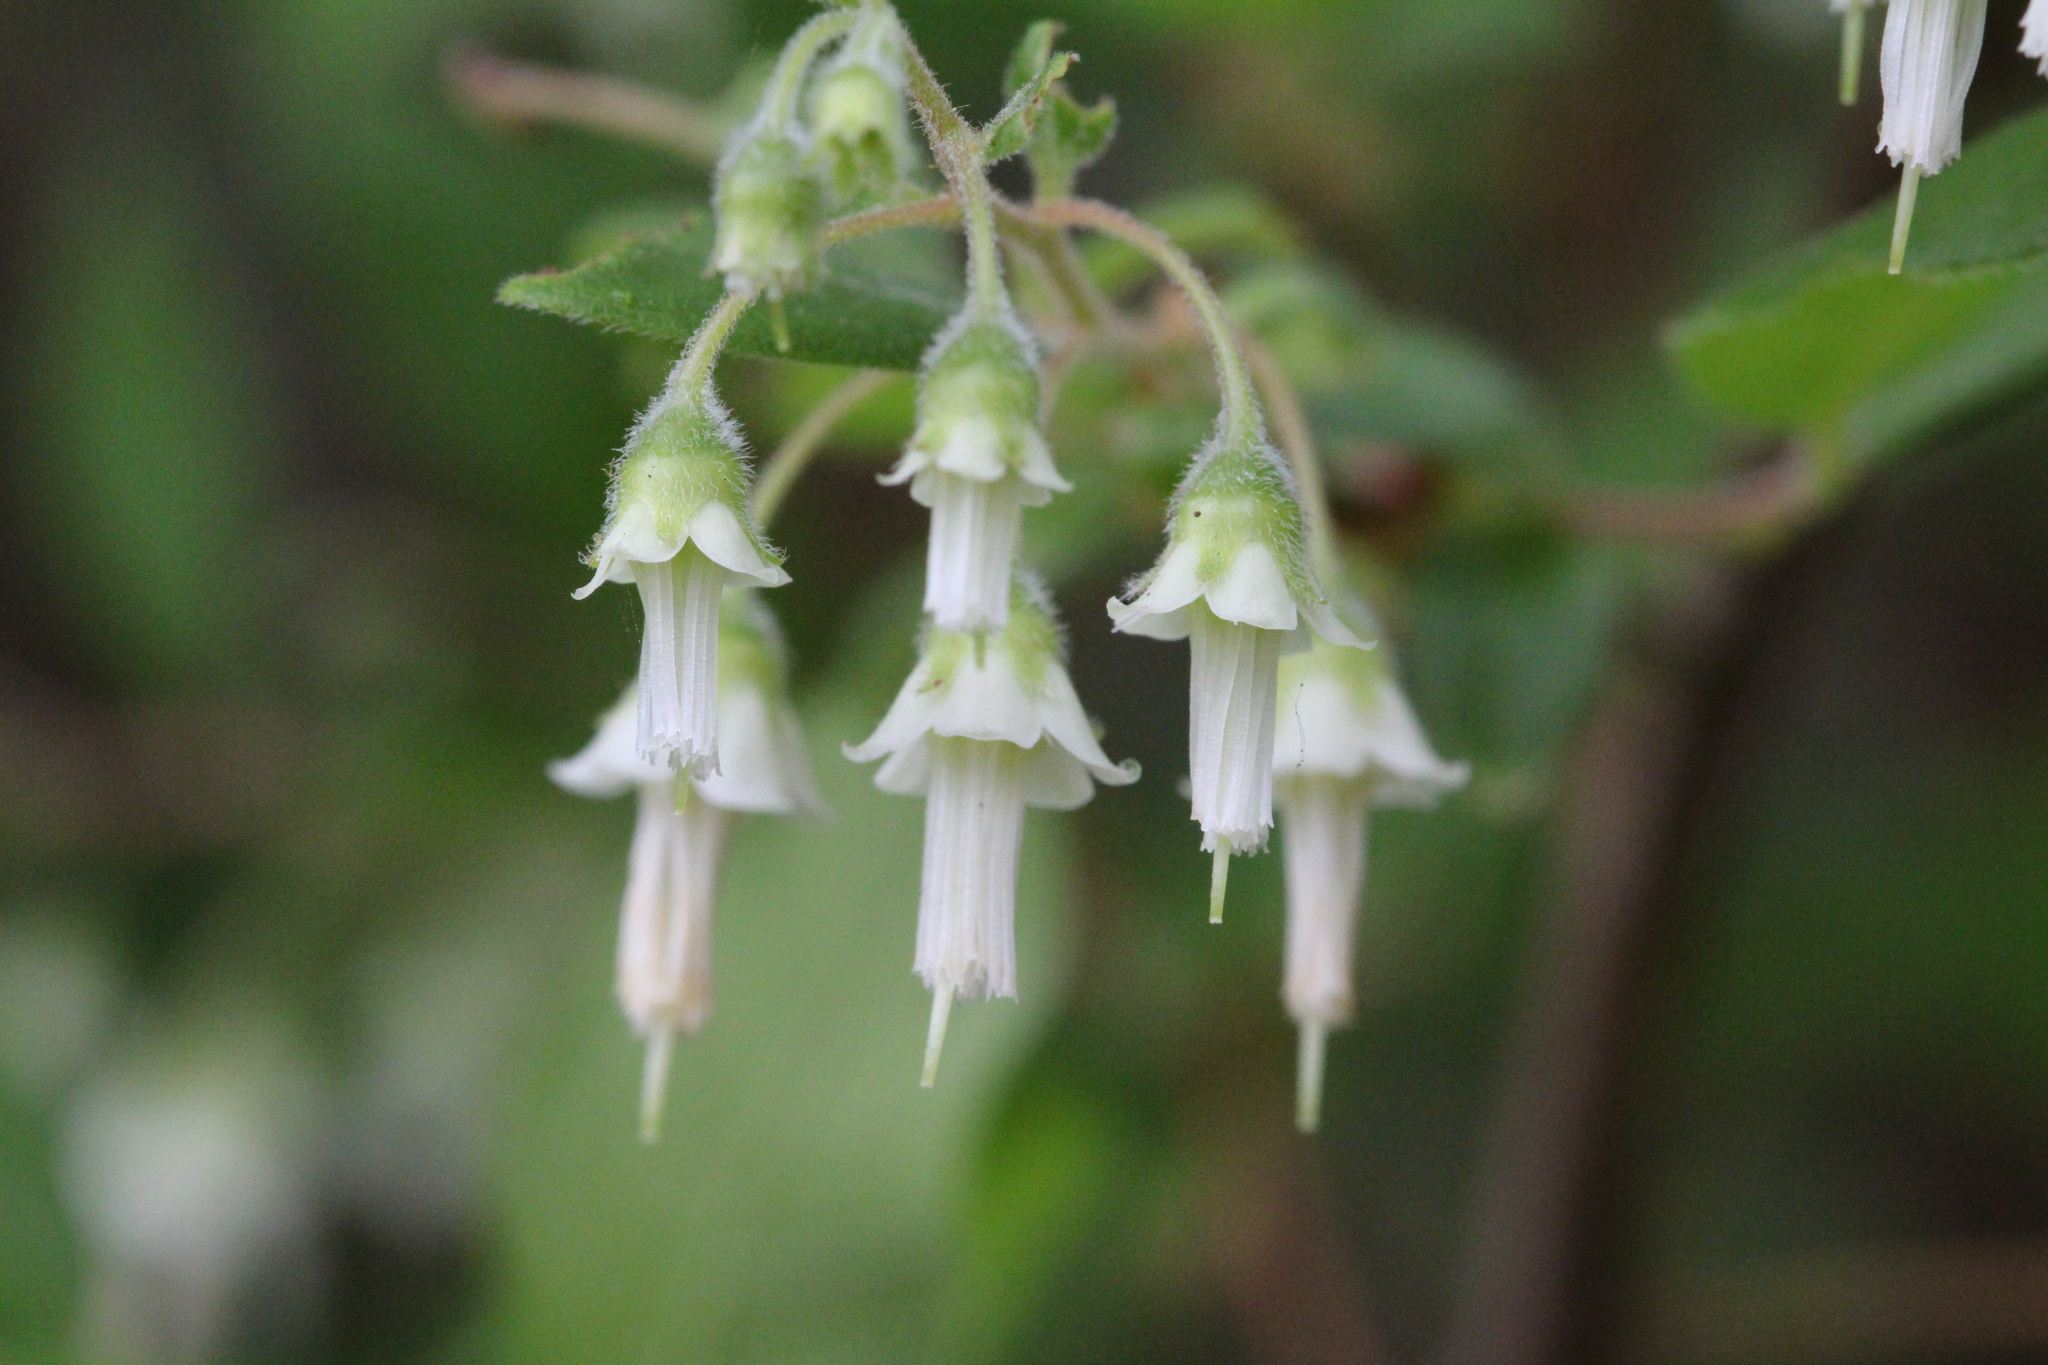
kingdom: Plantae
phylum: Tracheophyta
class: Magnoliopsida
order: Ericales
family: Ericaceae
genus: Vaccinium
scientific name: Vaccinium
